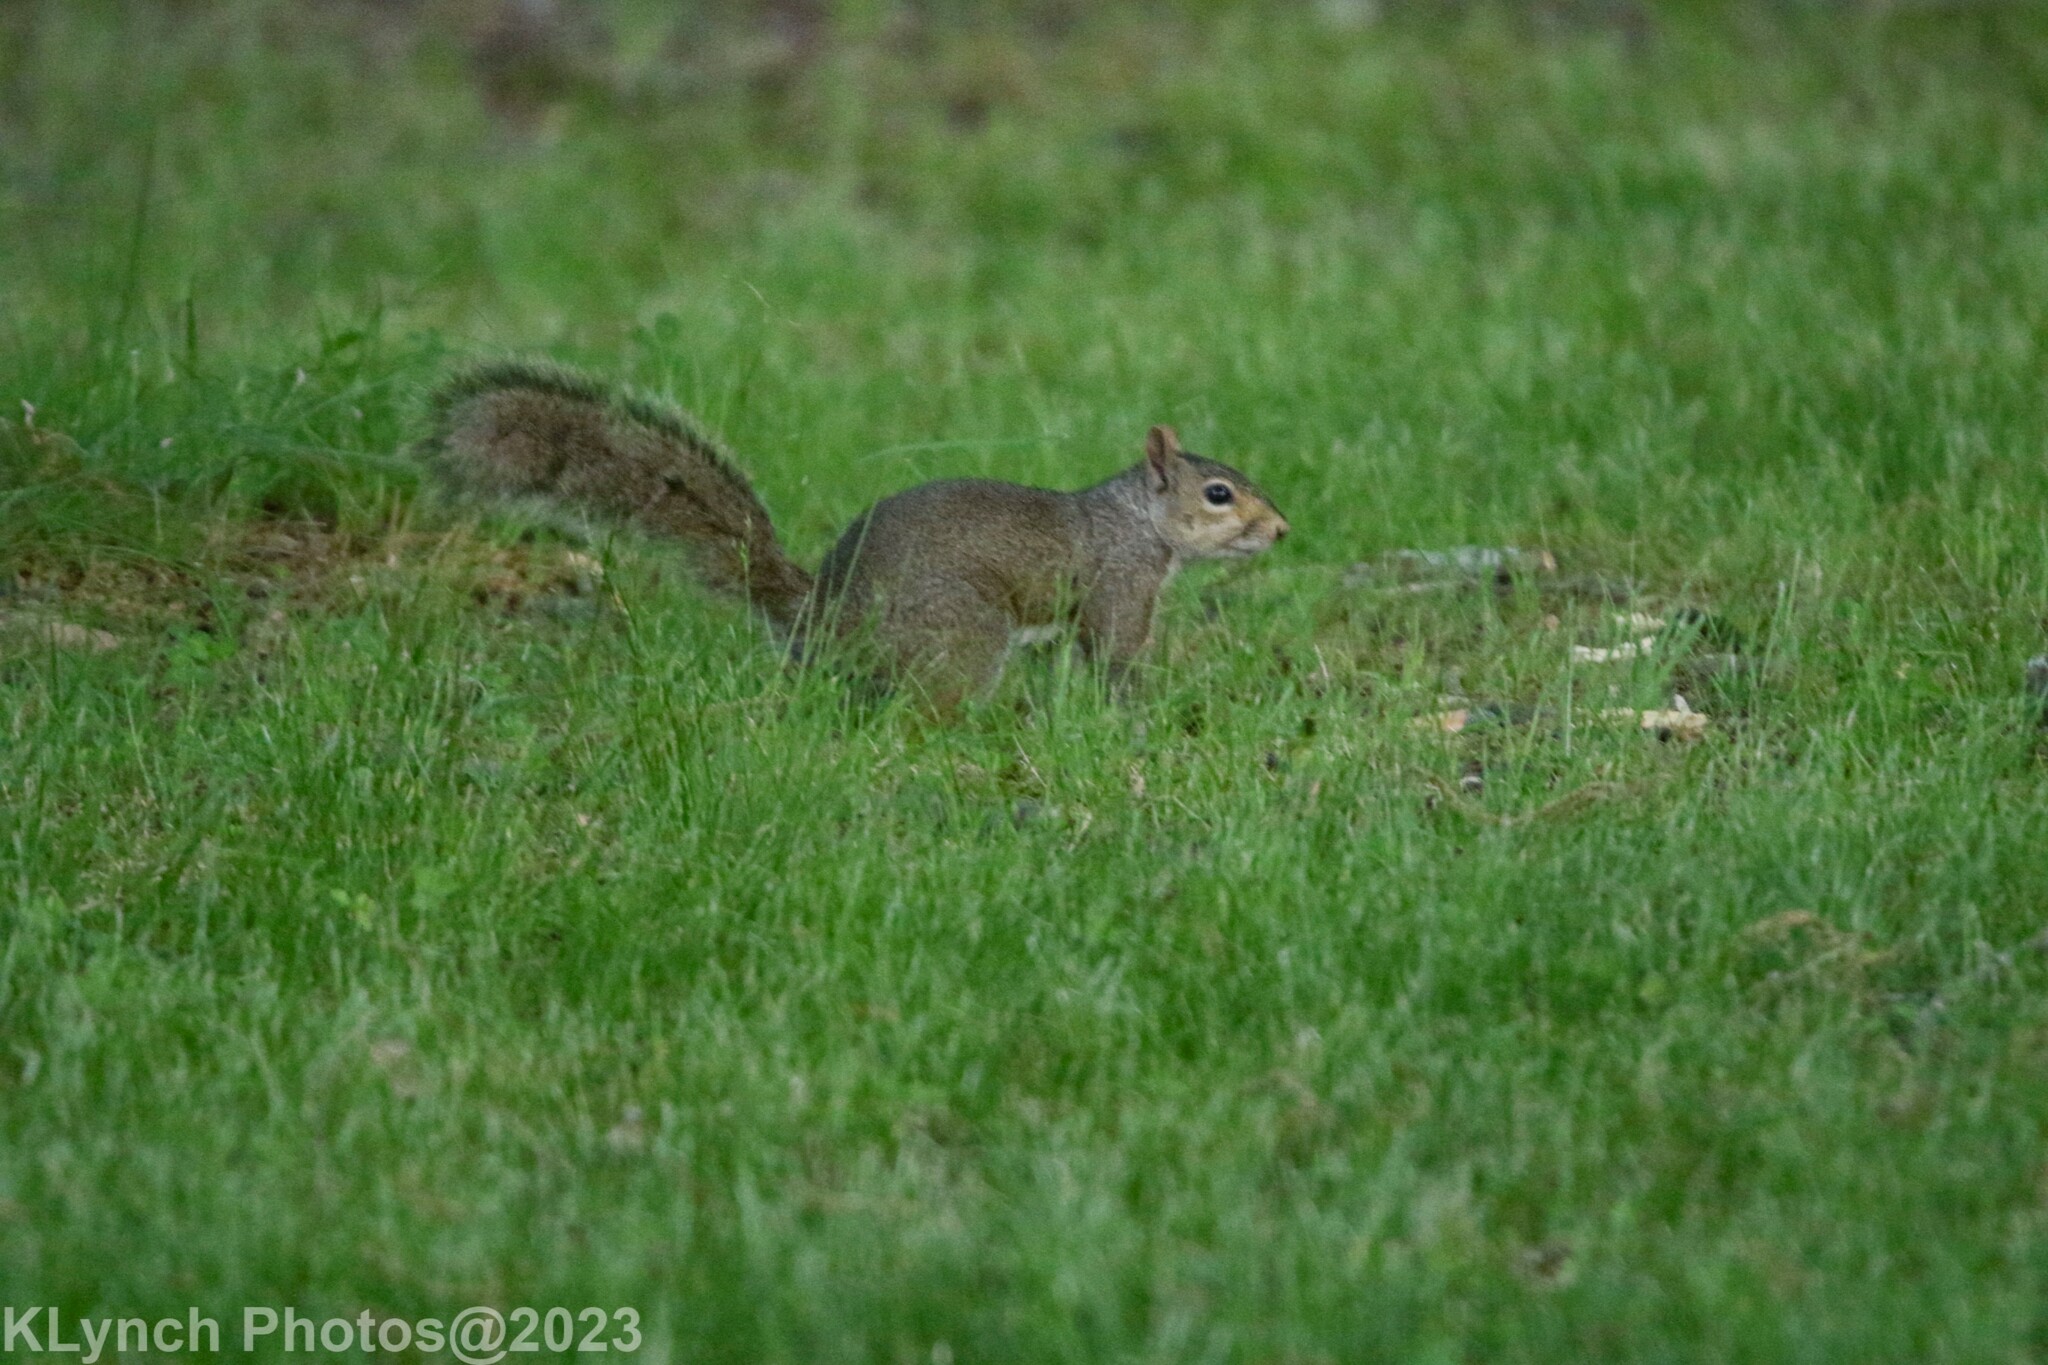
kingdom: Animalia
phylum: Chordata
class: Mammalia
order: Rodentia
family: Sciuridae
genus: Sciurus
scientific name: Sciurus carolinensis
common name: Eastern gray squirrel
